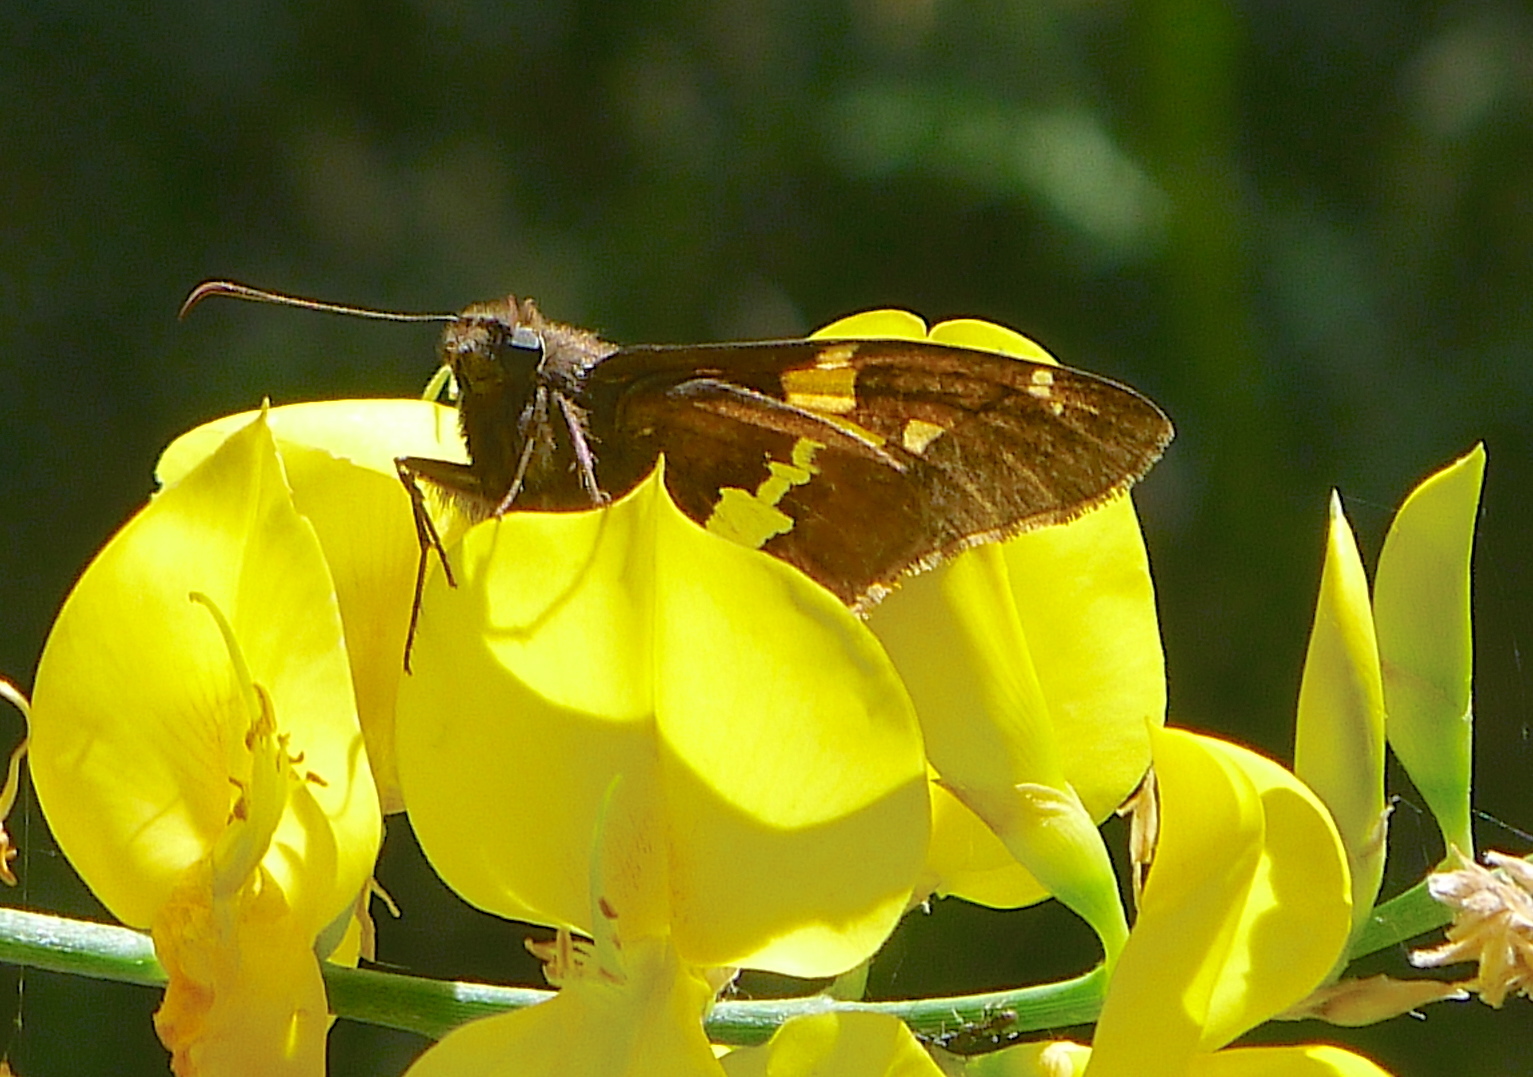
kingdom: Animalia
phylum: Arthropoda
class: Insecta
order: Lepidoptera
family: Hesperiidae
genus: Epargyreus
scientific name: Epargyreus clarus
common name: Silver-spotted skipper
